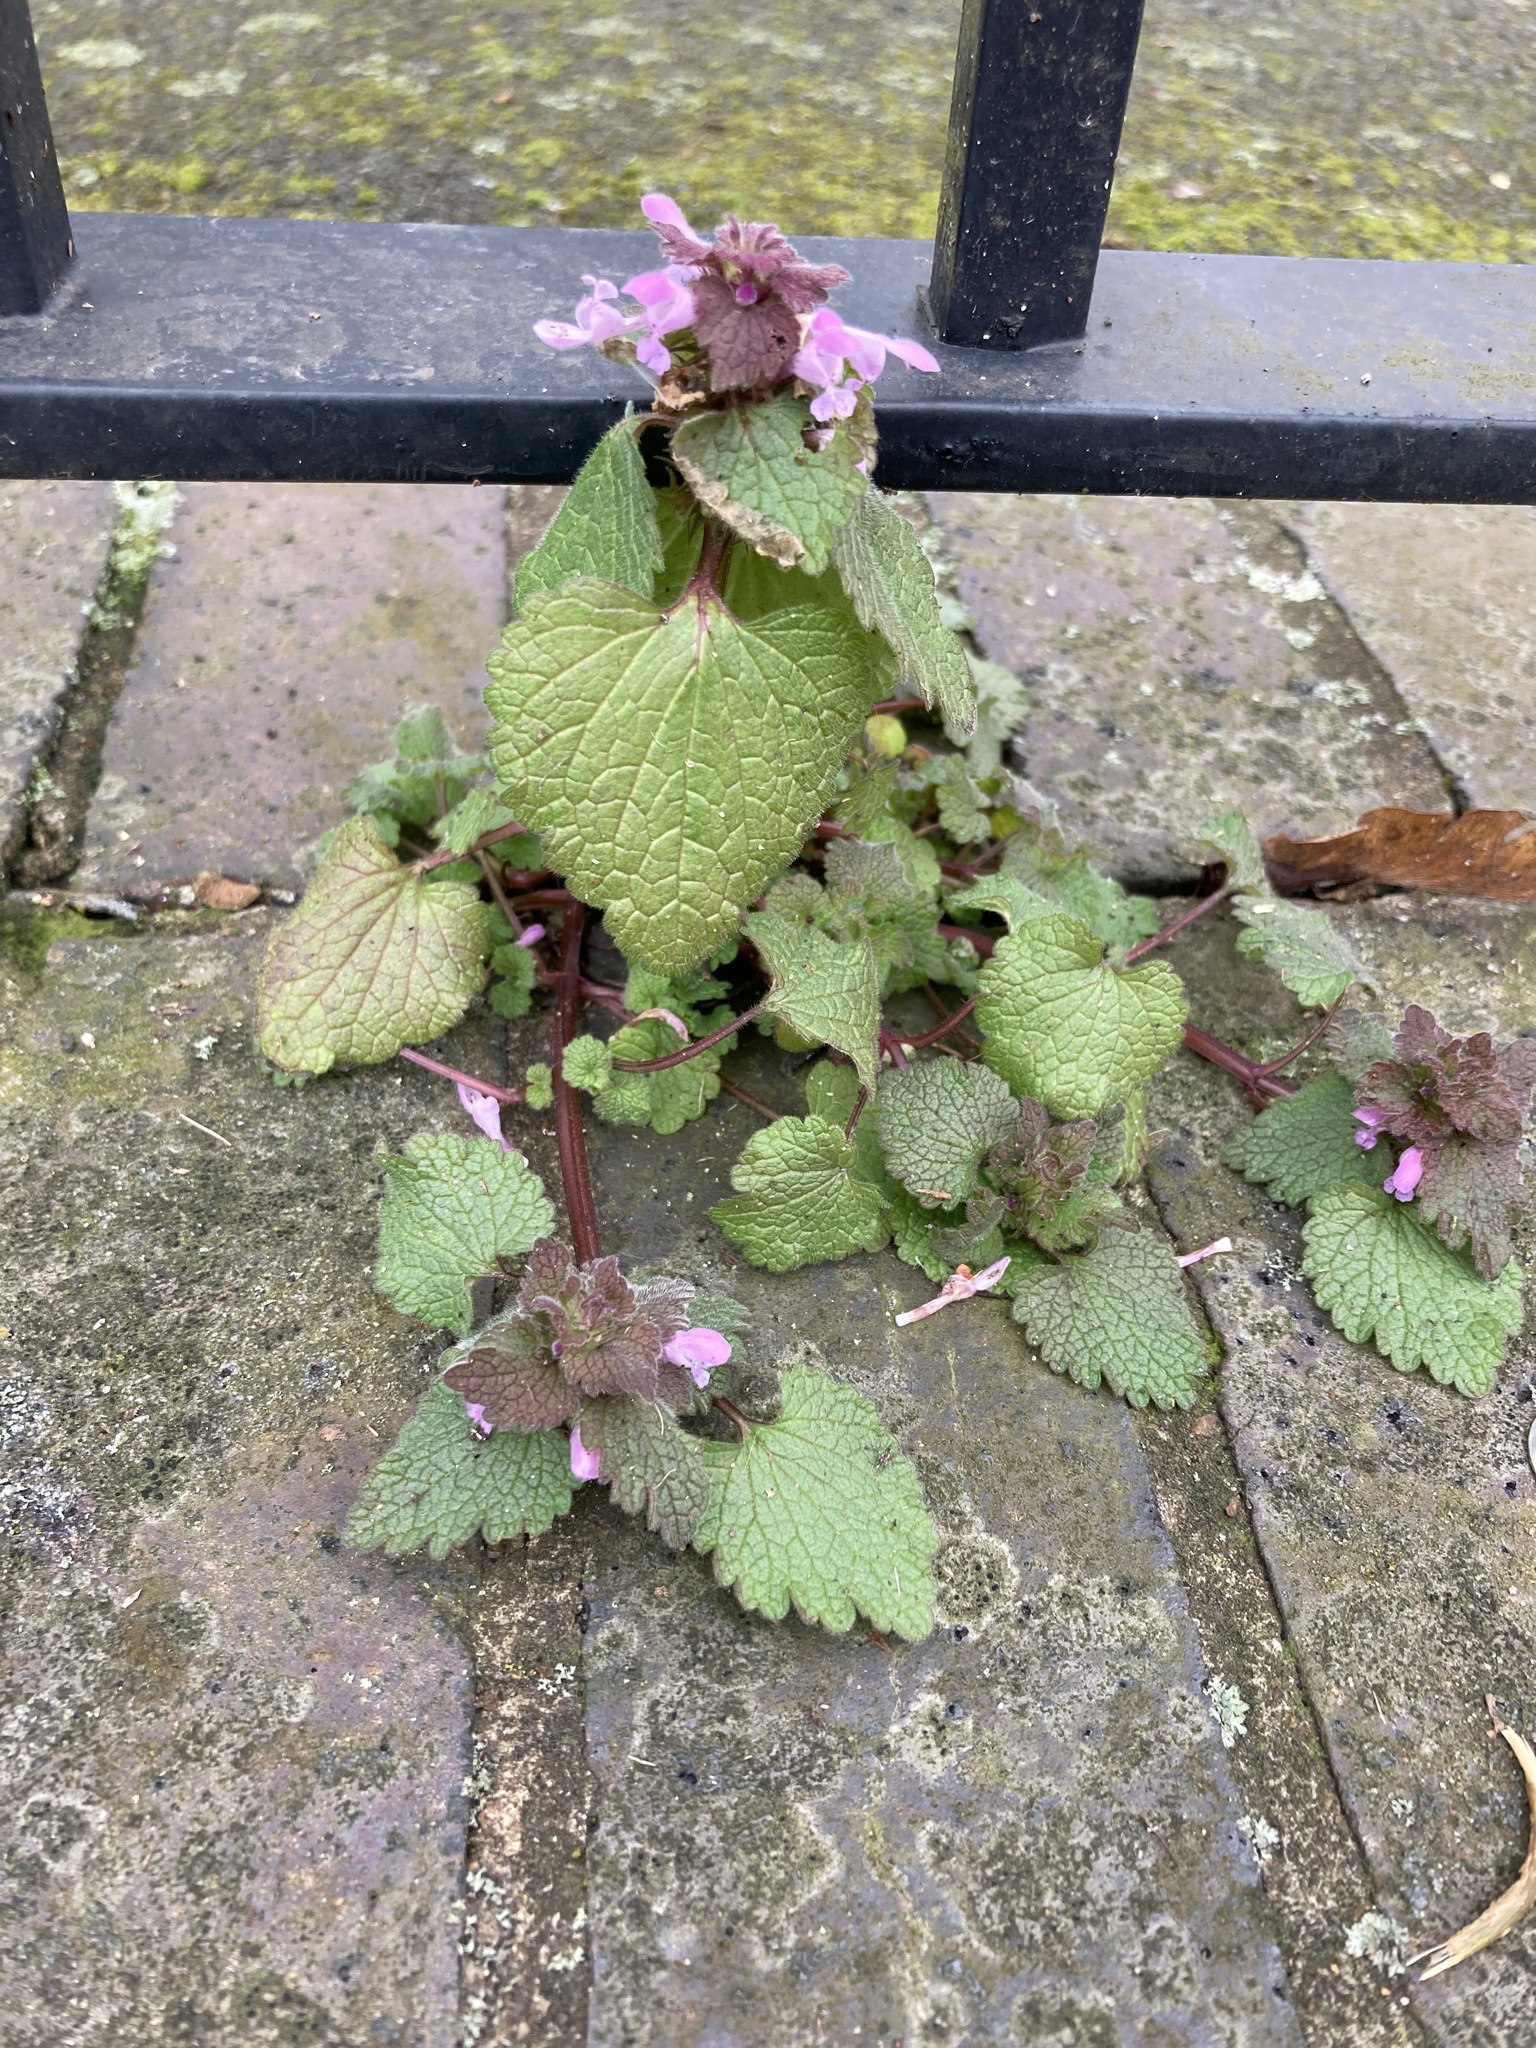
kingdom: Plantae
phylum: Tracheophyta
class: Magnoliopsida
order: Lamiales
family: Lamiaceae
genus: Lamium
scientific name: Lamium purpureum
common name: Red dead-nettle
